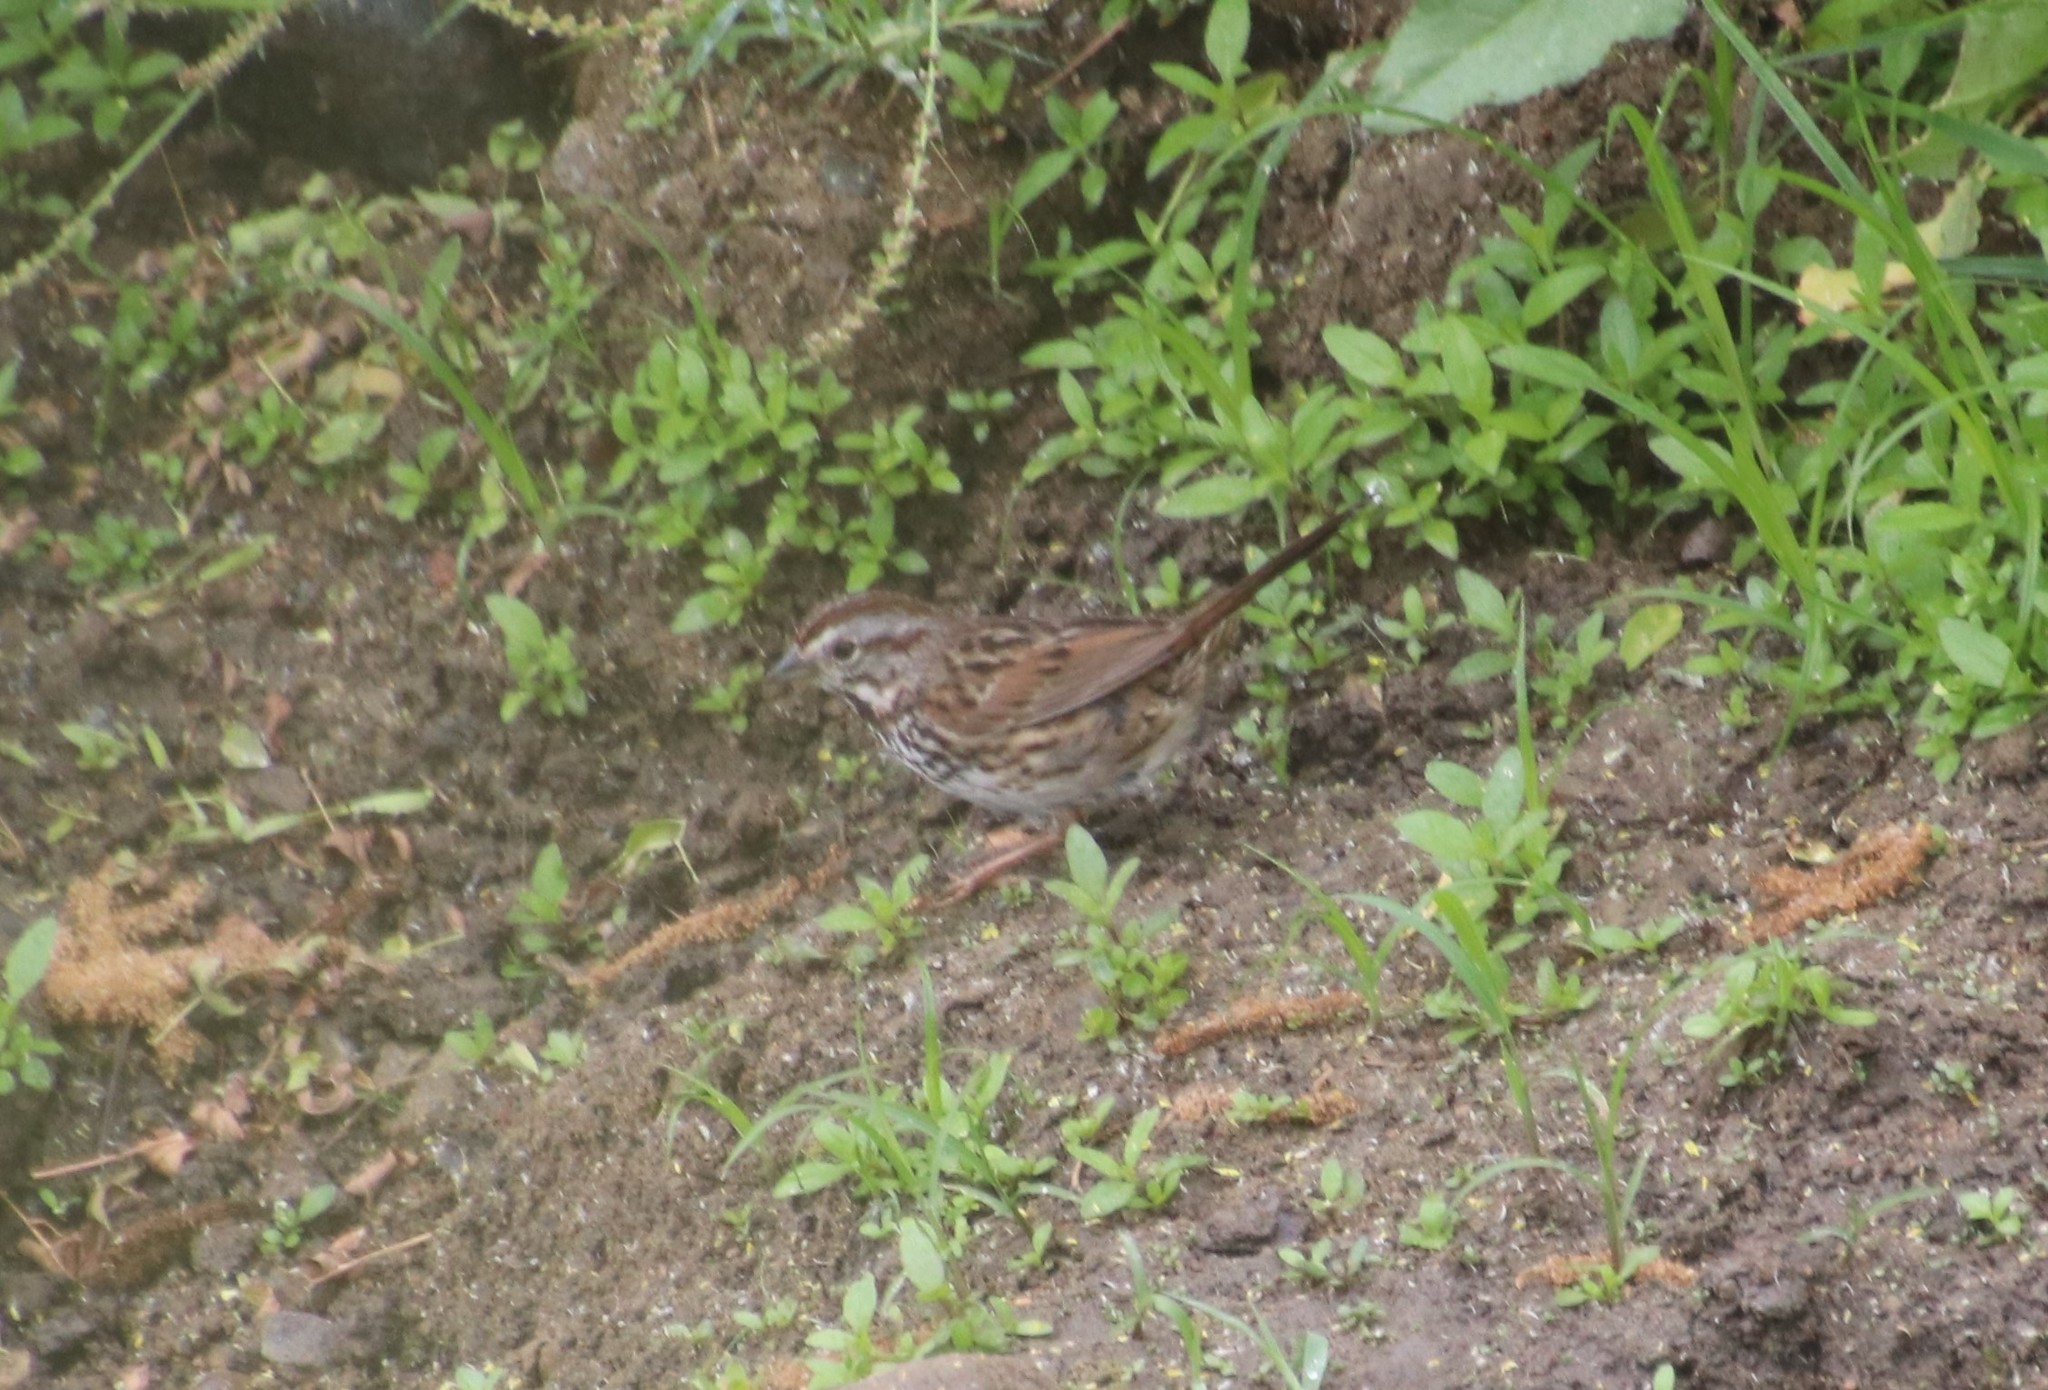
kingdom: Animalia
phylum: Chordata
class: Aves
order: Passeriformes
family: Passerellidae
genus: Melospiza
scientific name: Melospiza melodia
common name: Song sparrow
